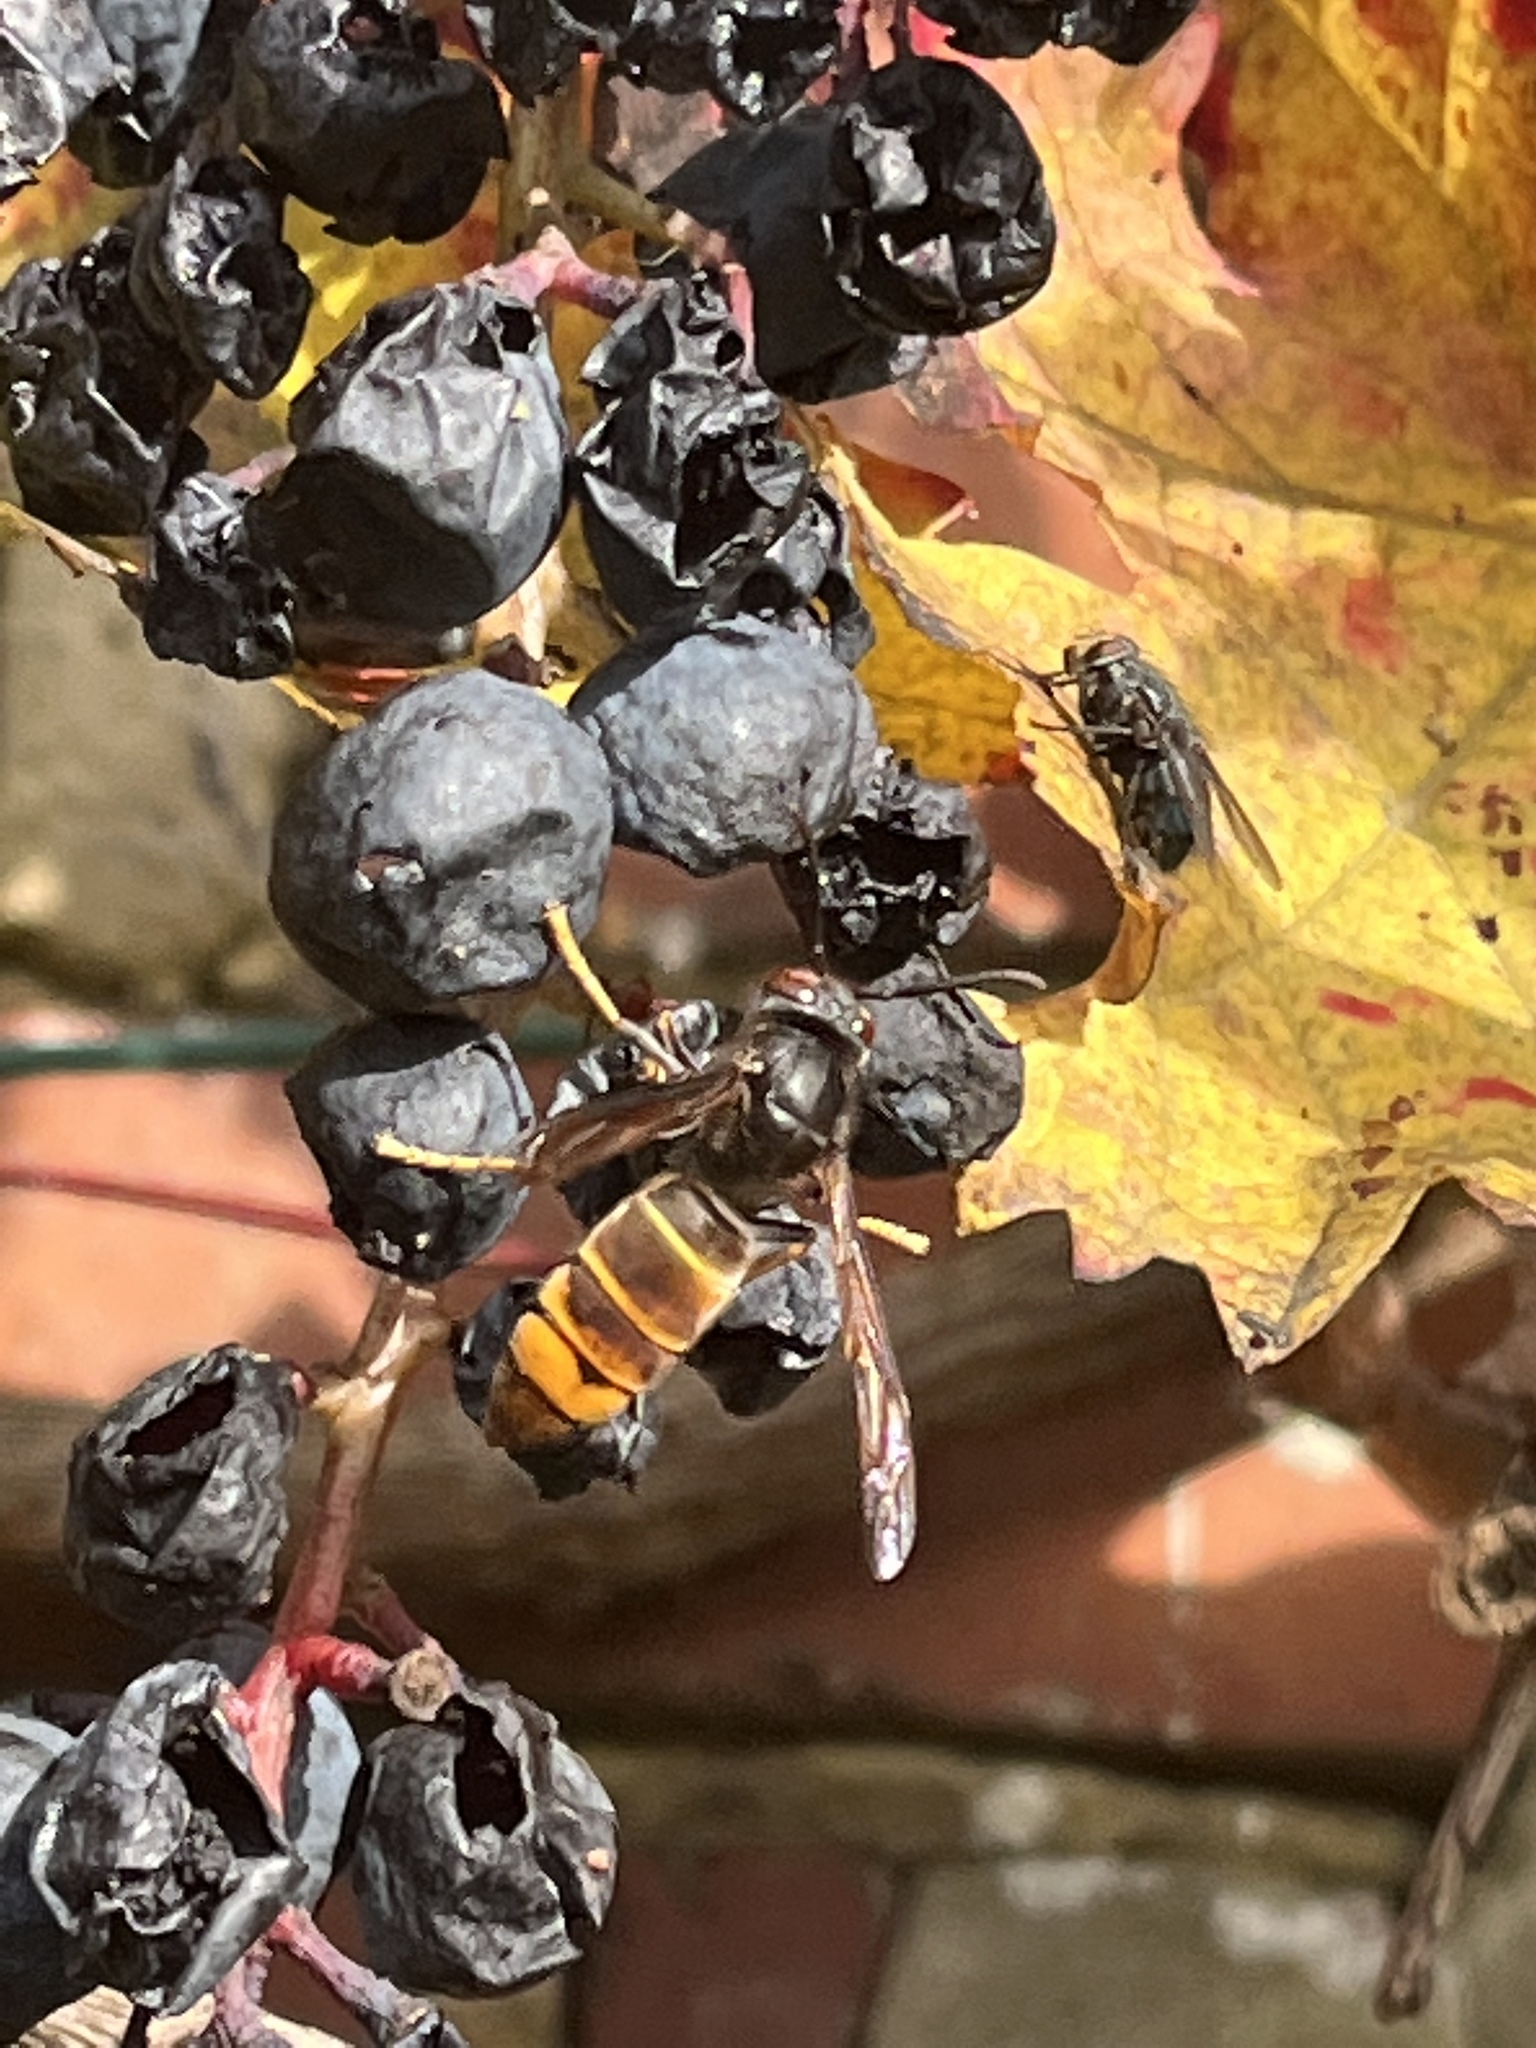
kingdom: Animalia
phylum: Arthropoda
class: Insecta
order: Hymenoptera
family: Vespidae
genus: Vespa
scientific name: Vespa velutina
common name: Asian hornet
